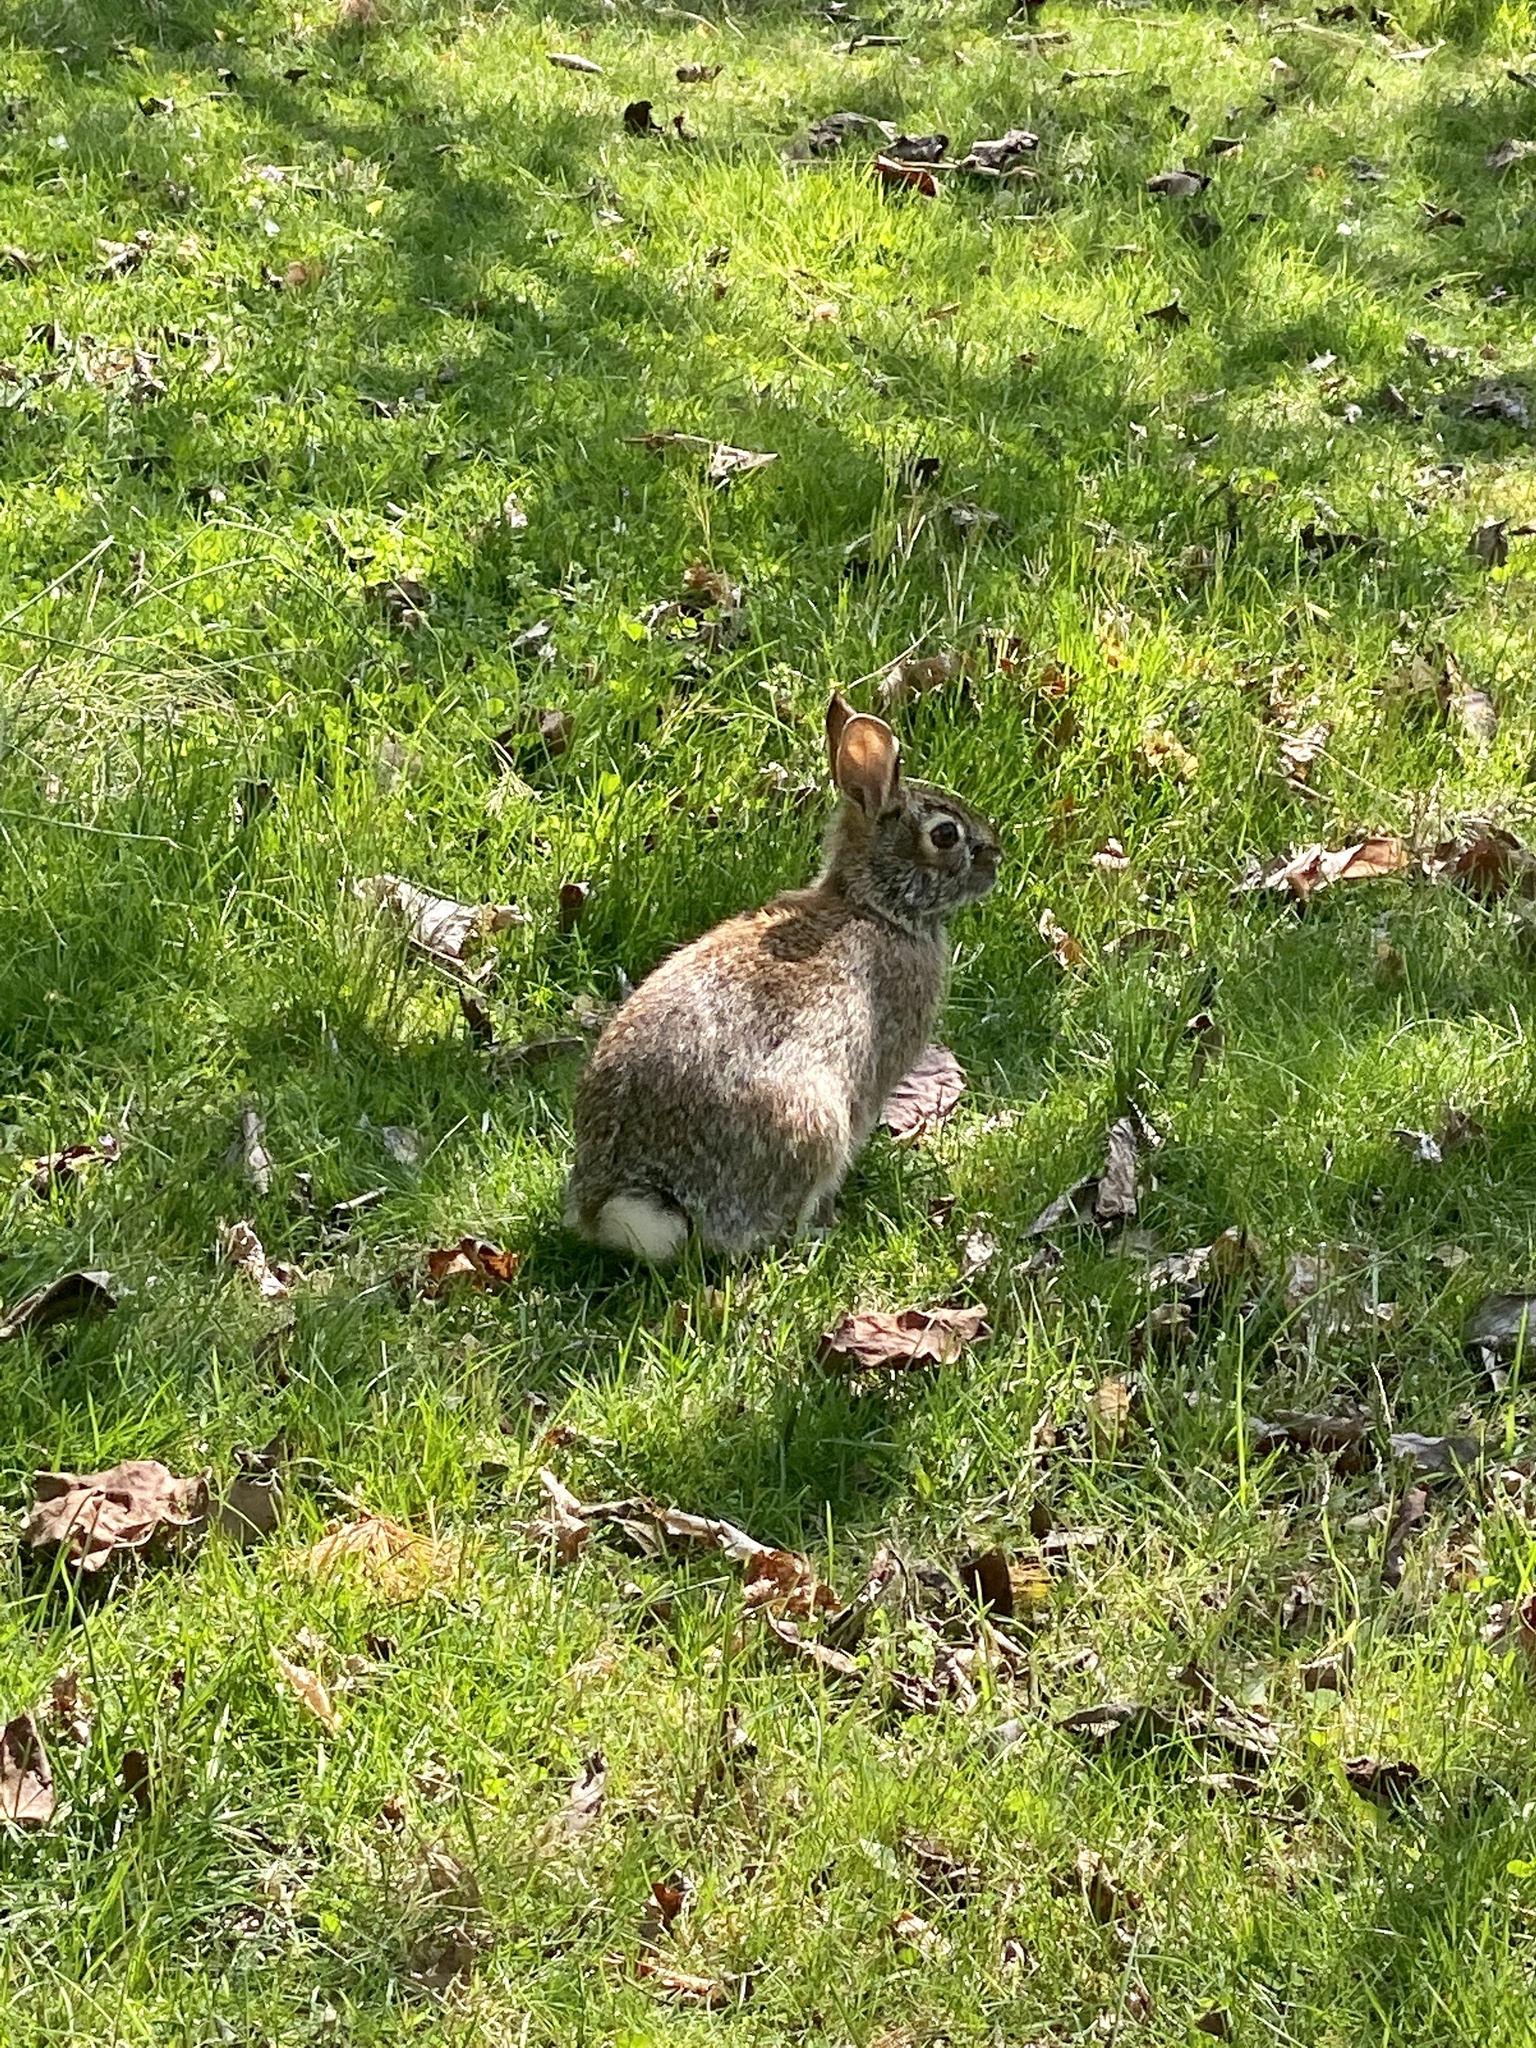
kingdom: Animalia
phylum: Chordata
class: Mammalia
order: Lagomorpha
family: Leporidae
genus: Sylvilagus
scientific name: Sylvilagus floridanus
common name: Eastern cottontail
